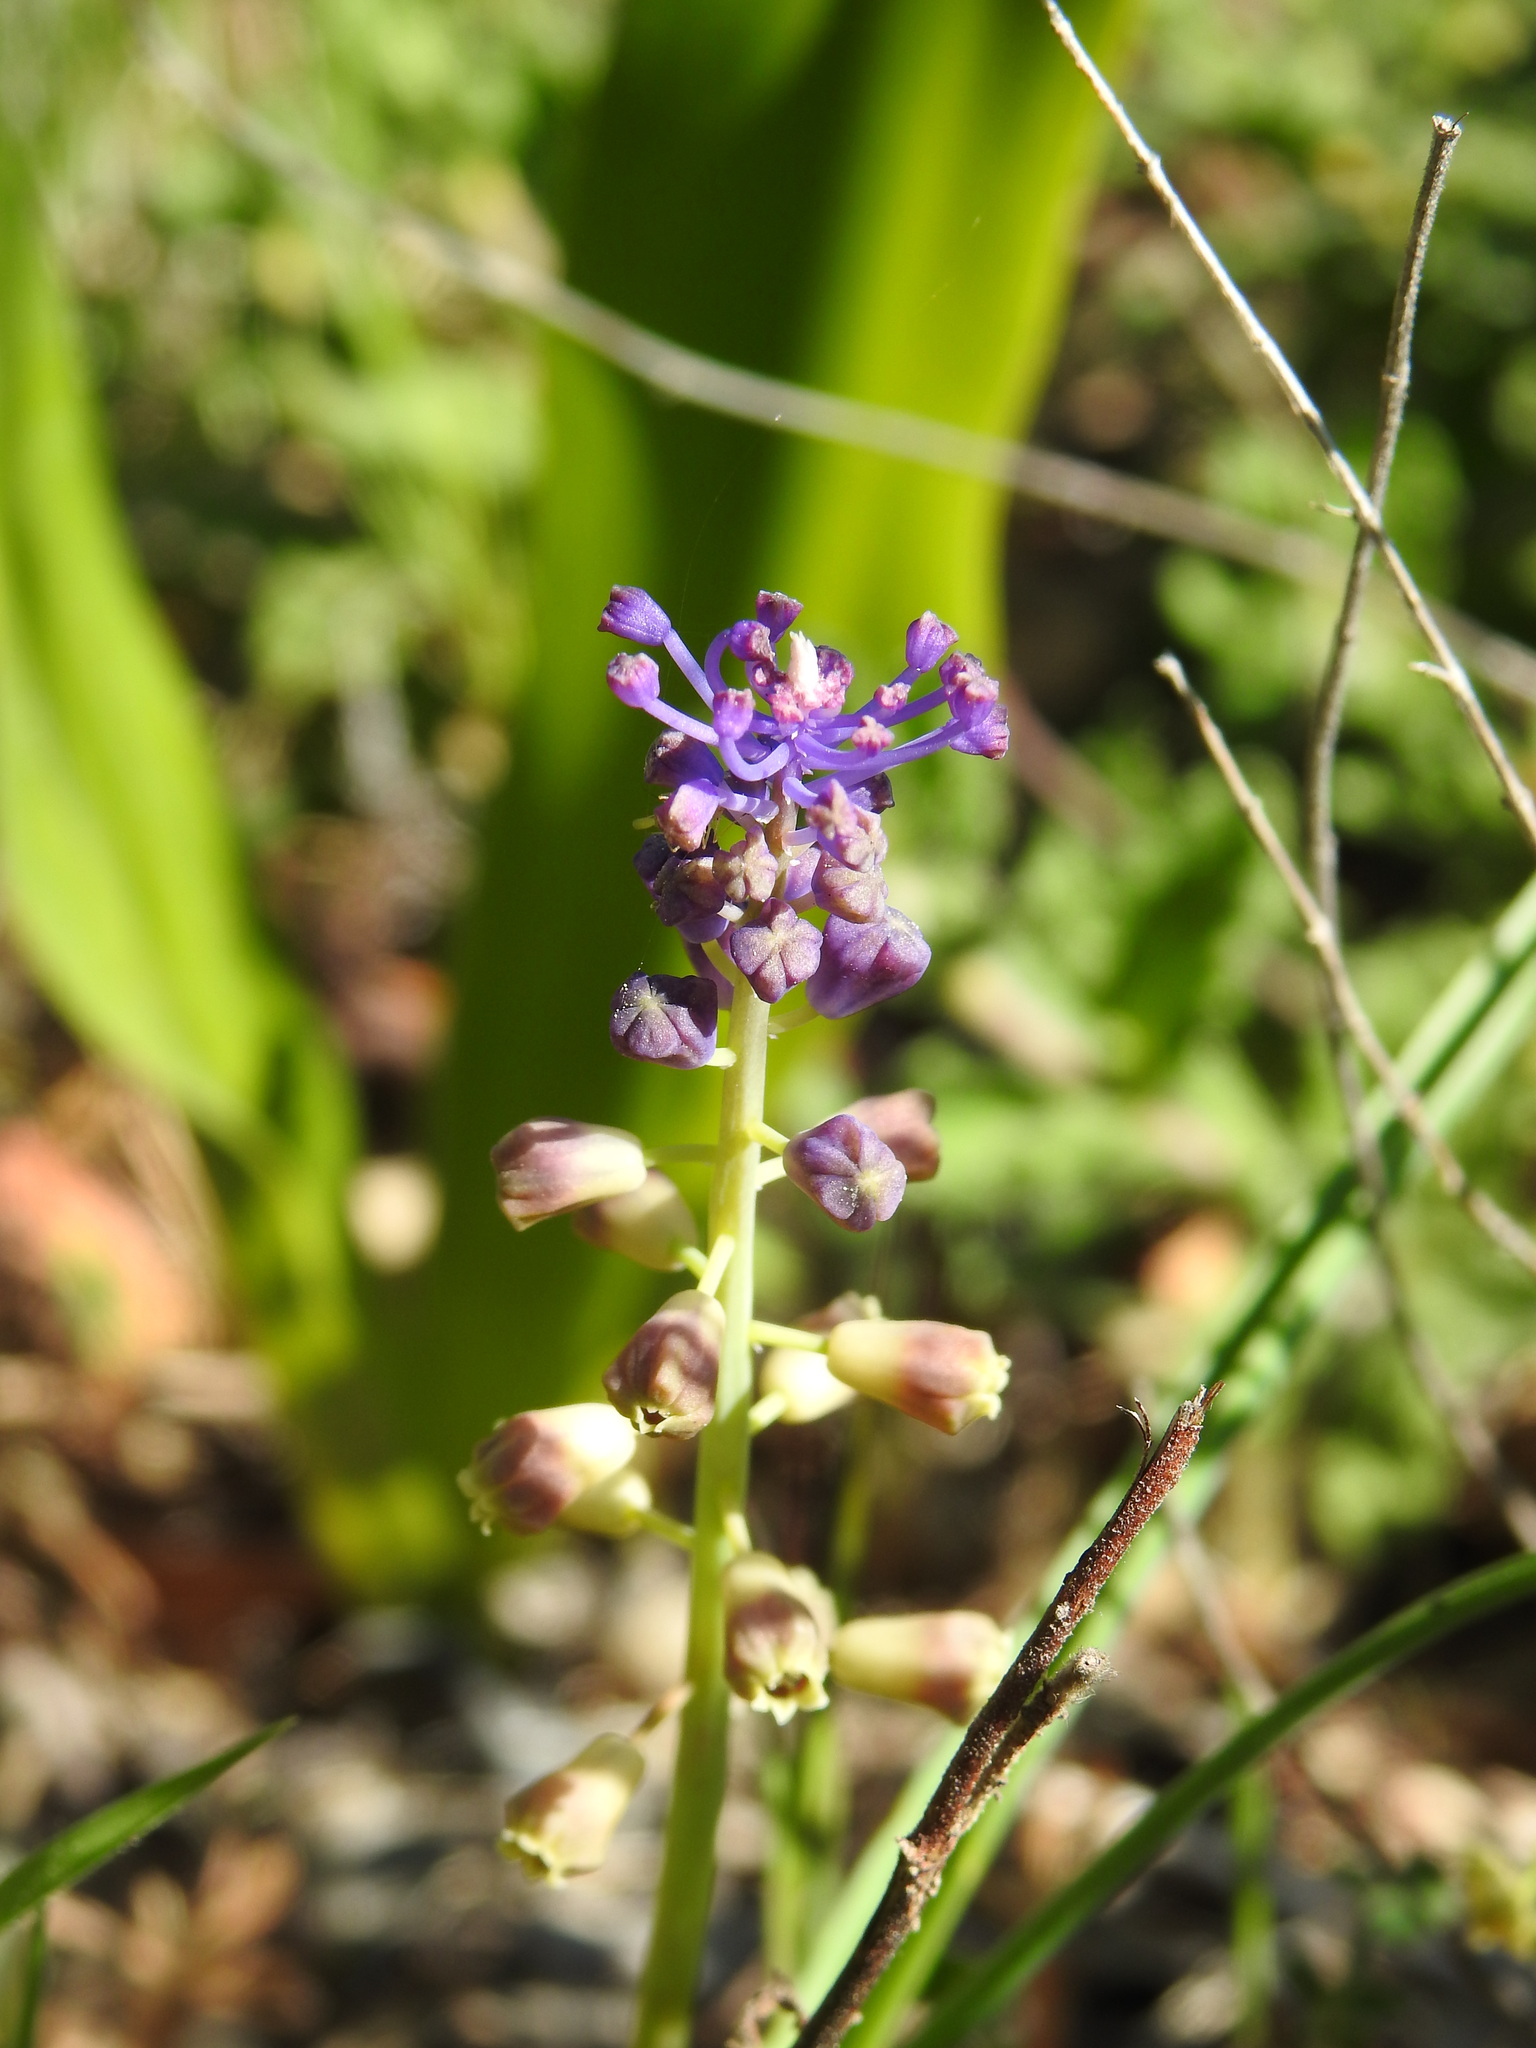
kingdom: Plantae
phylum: Tracheophyta
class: Liliopsida
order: Asparagales
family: Asparagaceae
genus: Muscari
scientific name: Muscari comosum
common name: Tassel hyacinth
